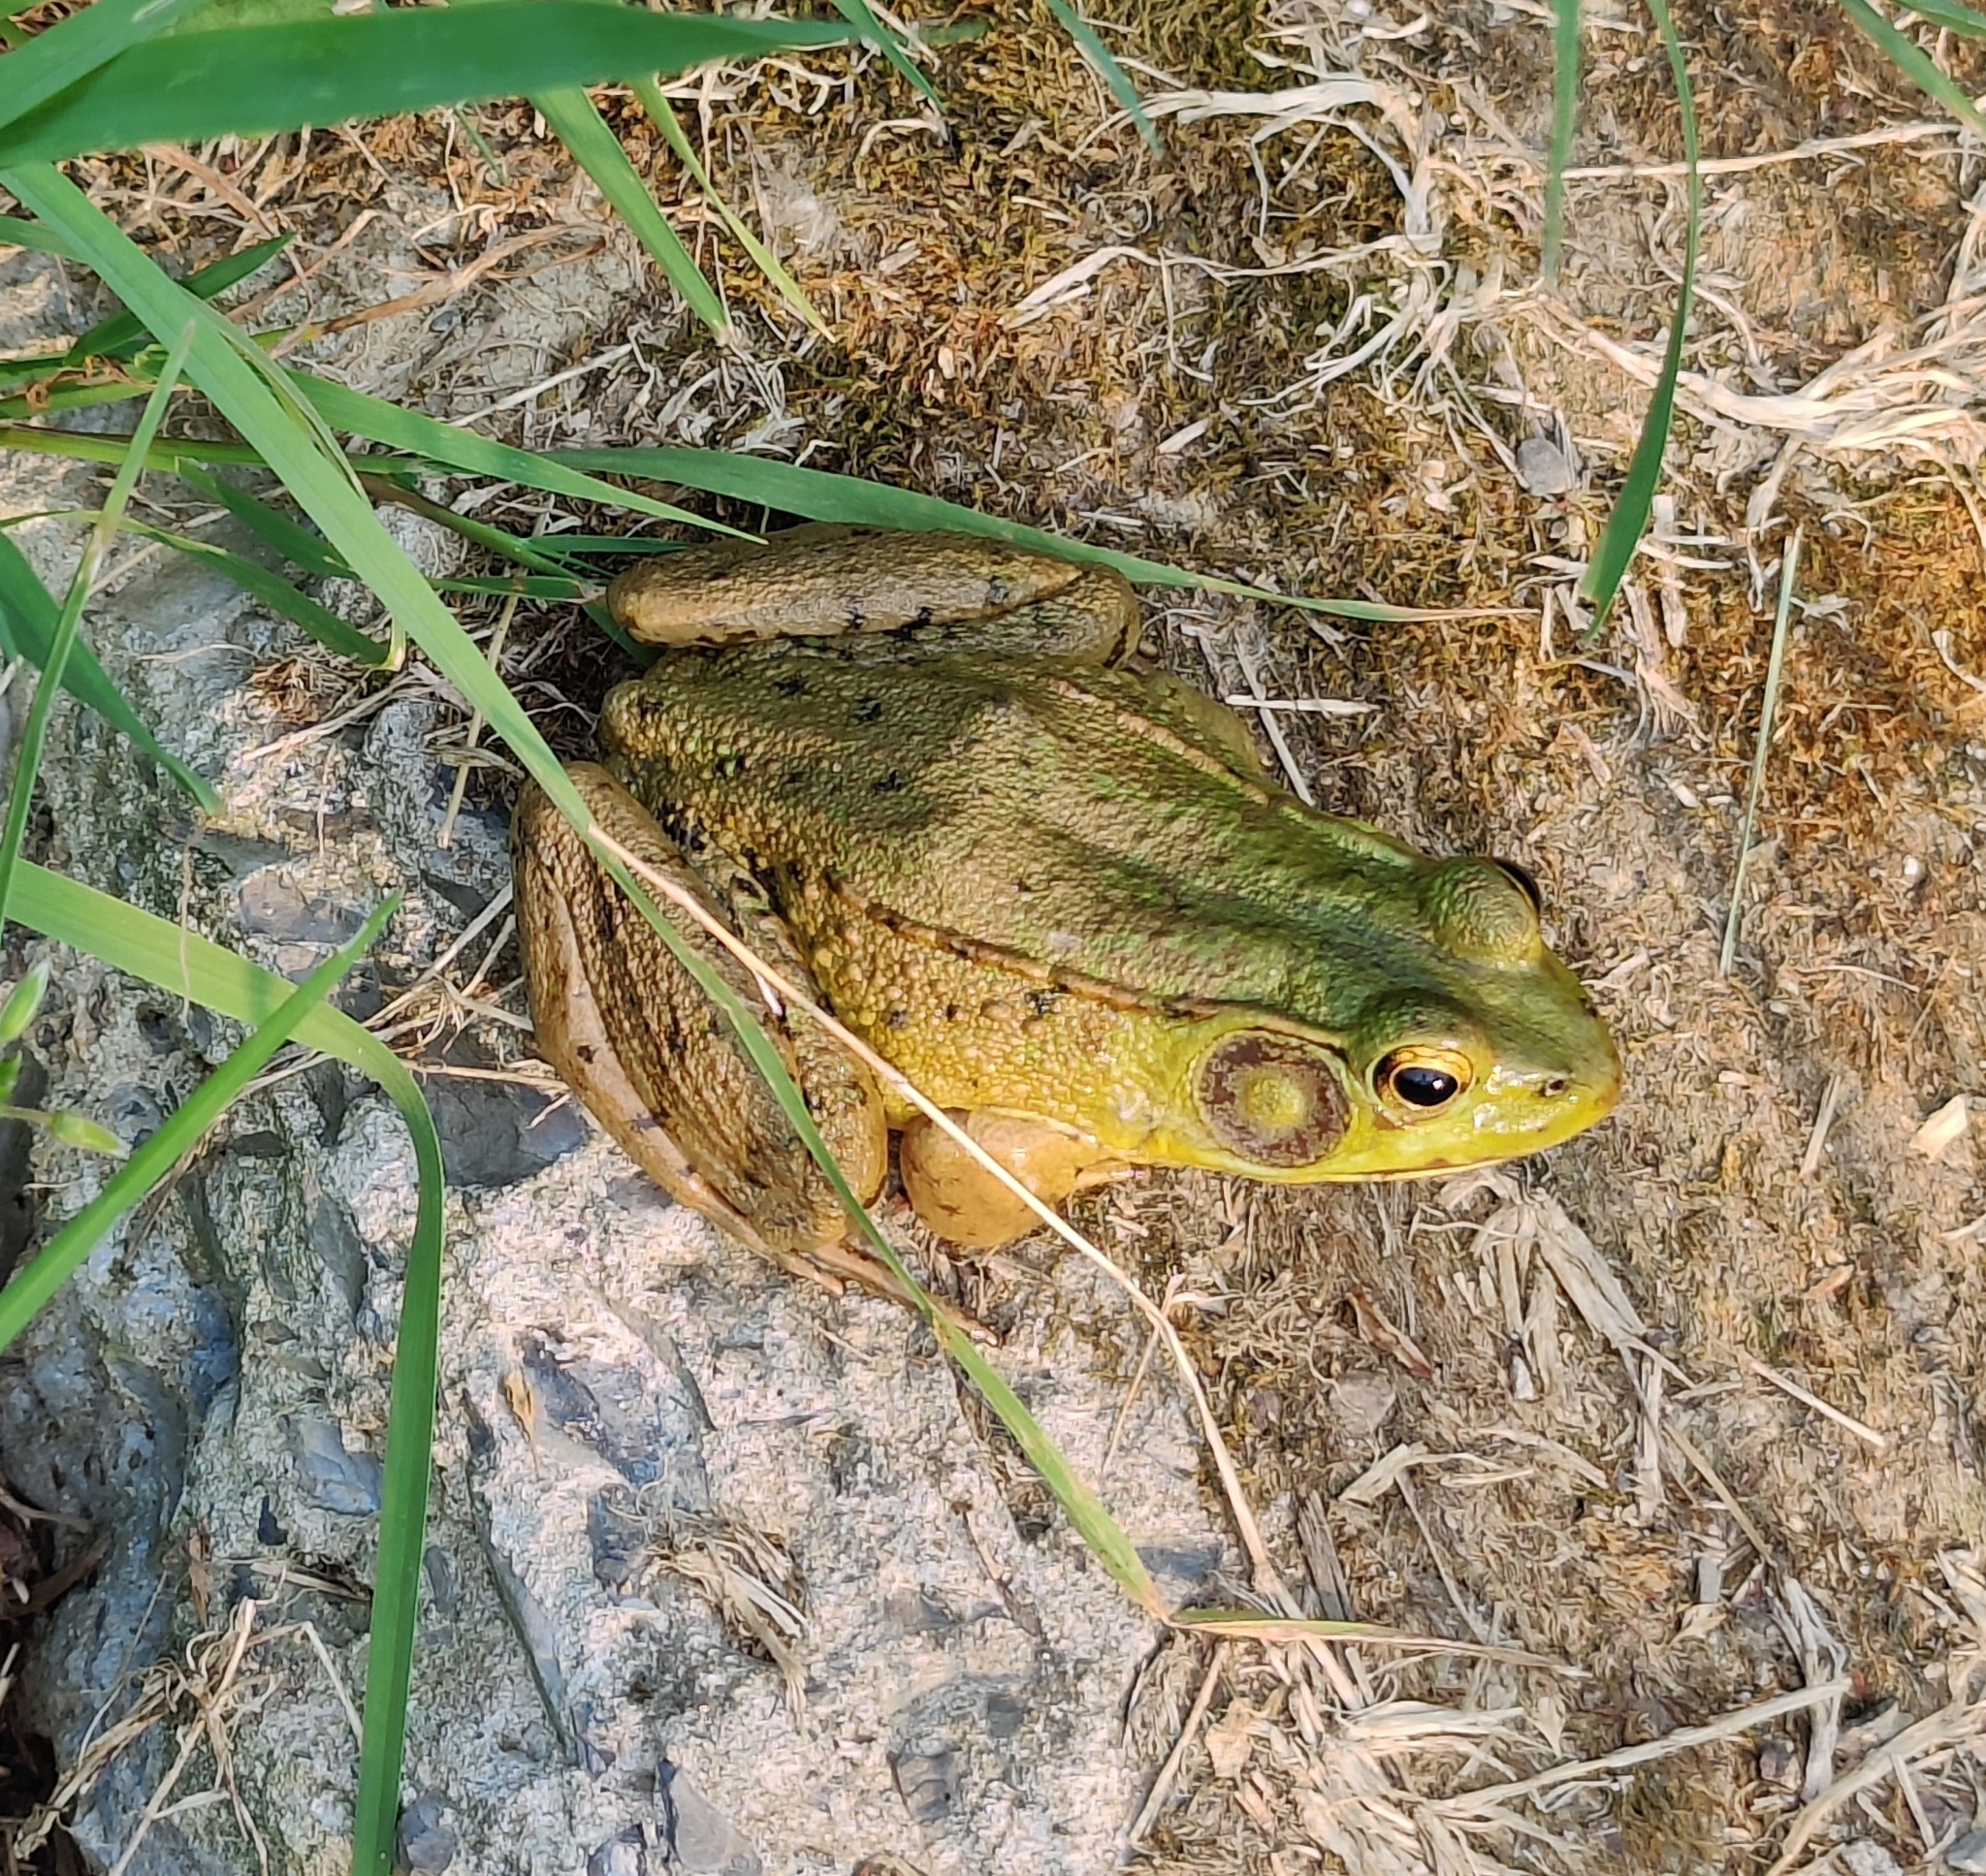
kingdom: Animalia
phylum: Chordata
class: Amphibia
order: Anura
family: Ranidae
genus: Lithobates
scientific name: Lithobates clamitans
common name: Green frog
